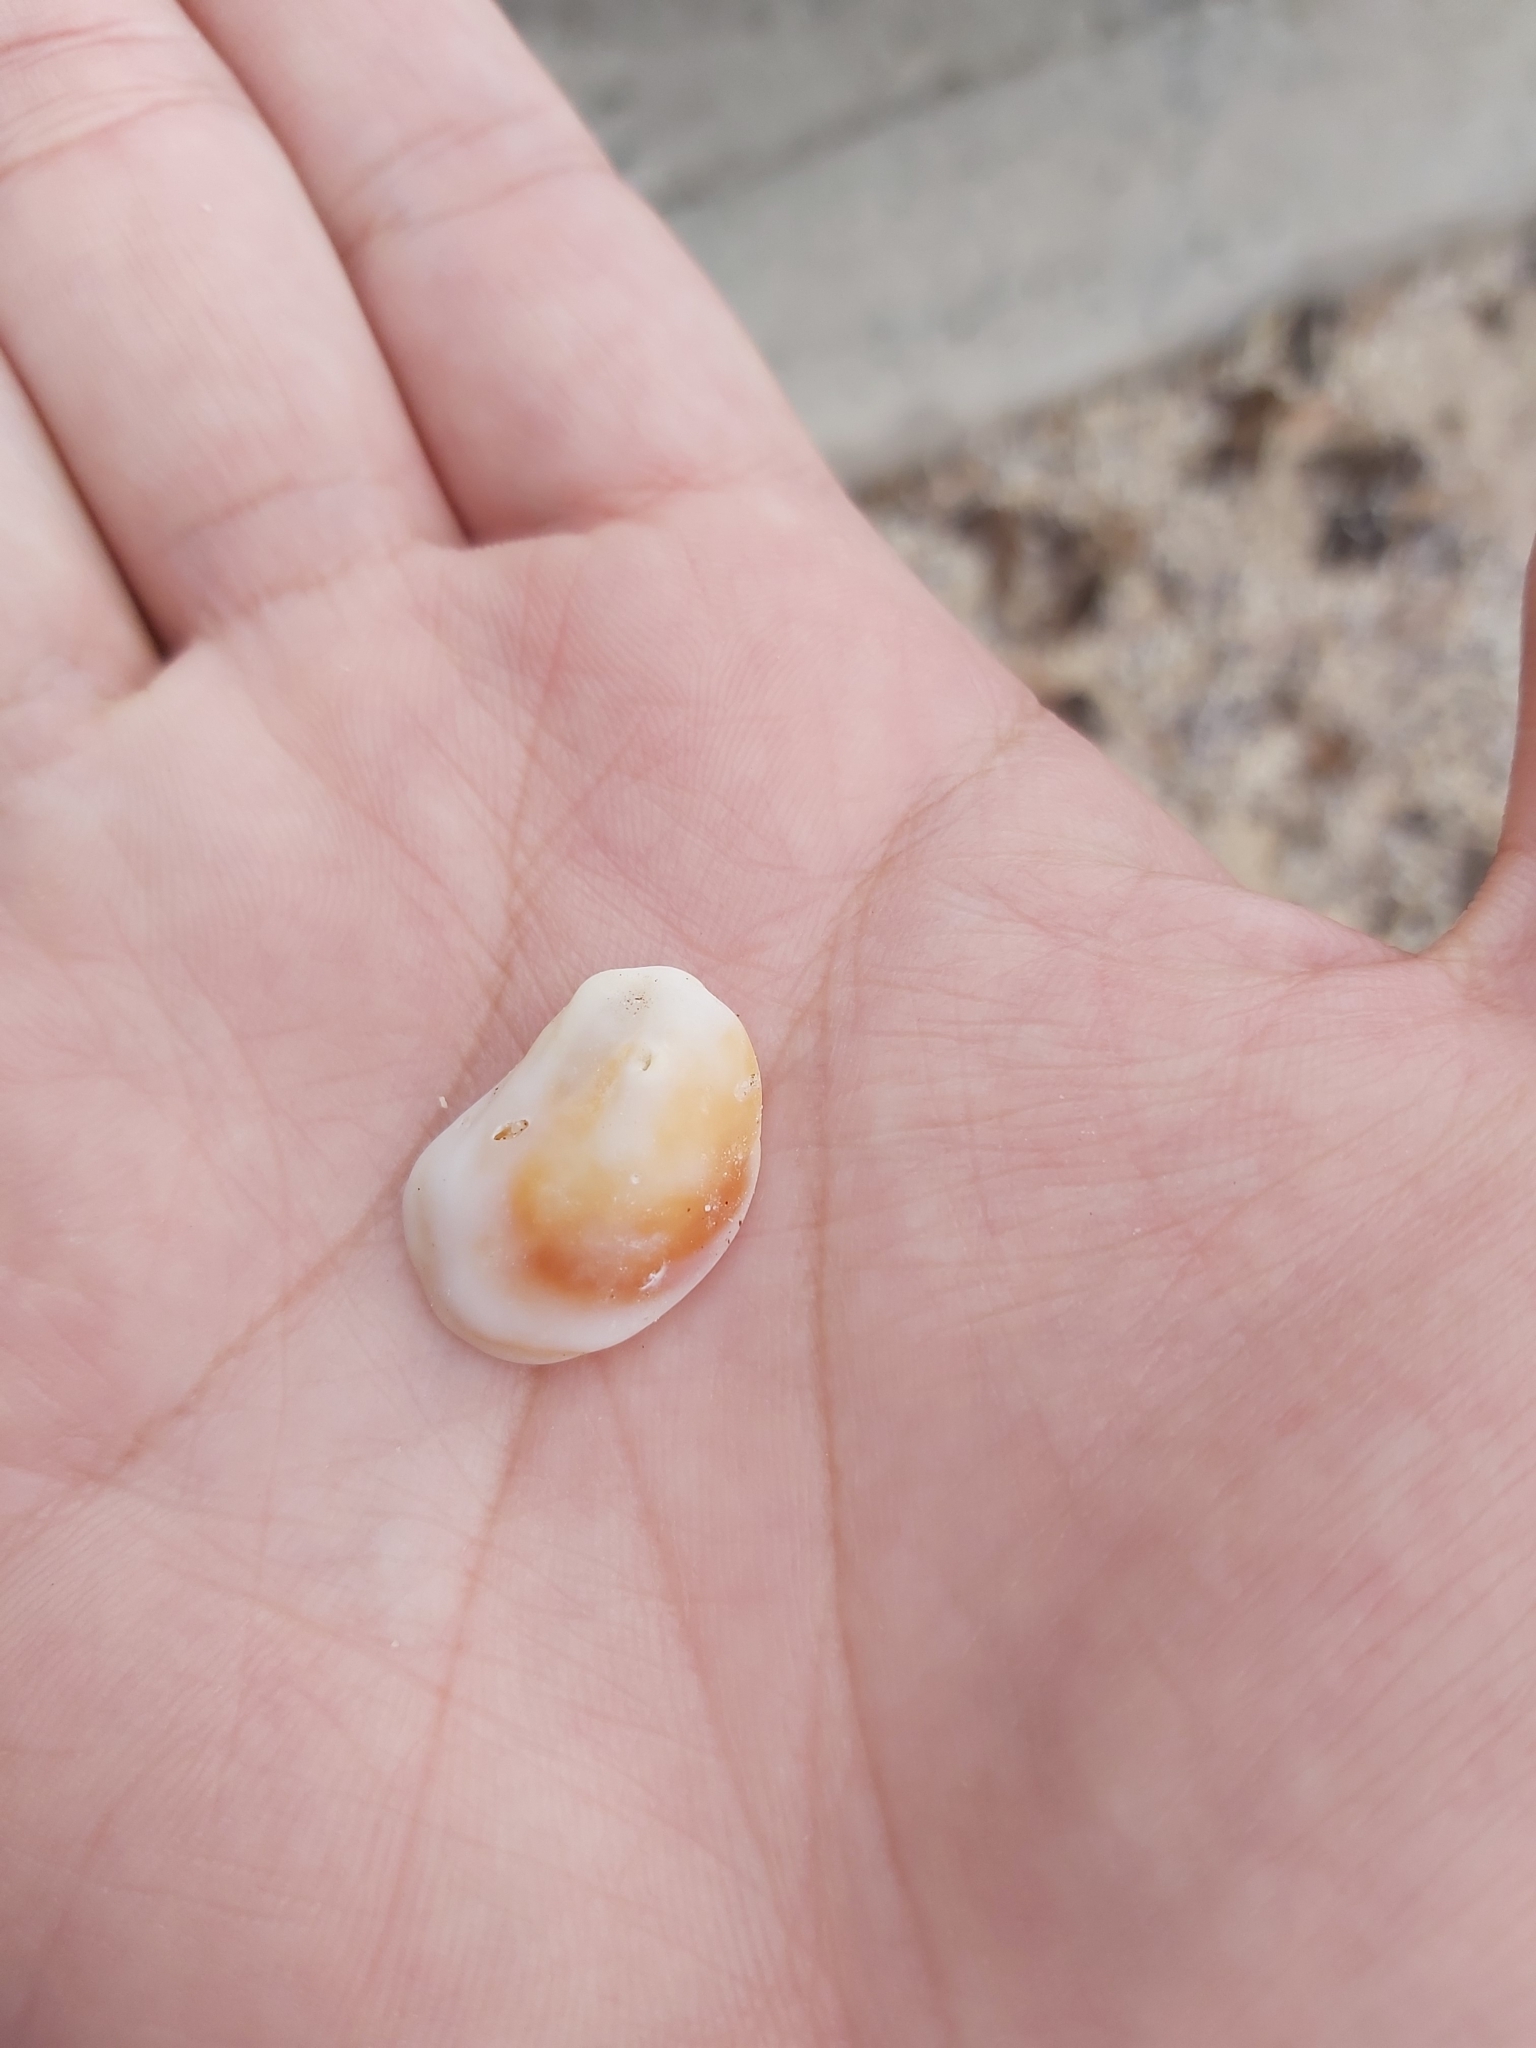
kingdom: Animalia
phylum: Mollusca
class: Gastropoda
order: Littorinimorpha
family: Calyptraeidae
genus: Bostrycapulus
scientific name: Bostrycapulus pritzkeri
